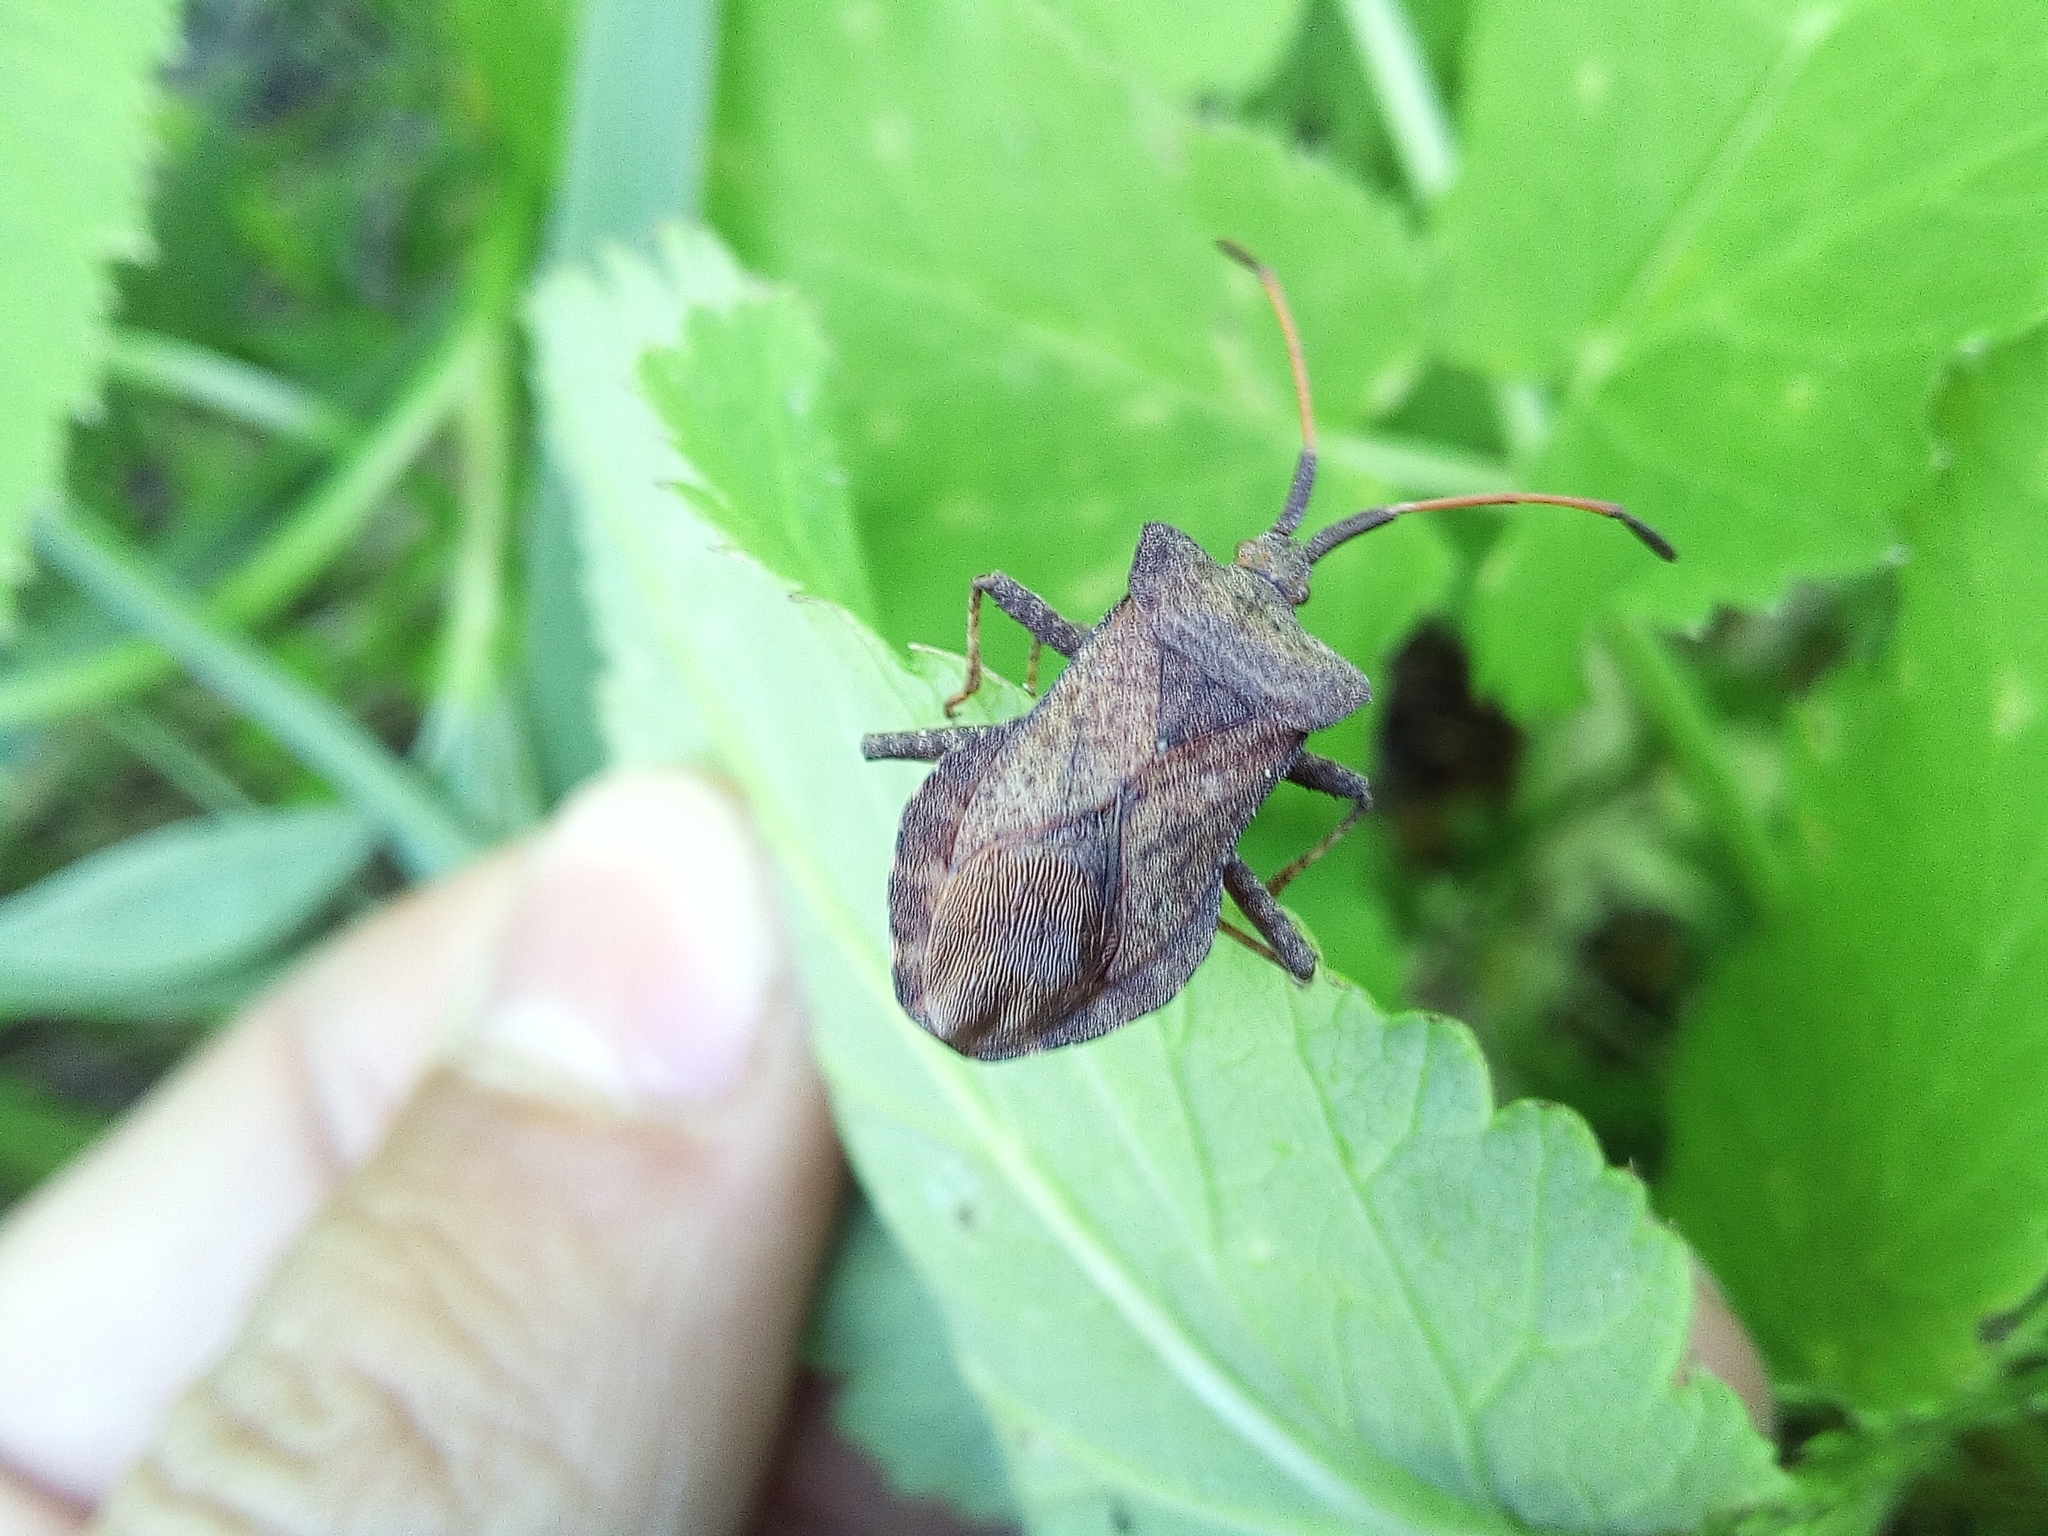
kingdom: Animalia
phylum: Arthropoda
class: Insecta
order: Hemiptera
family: Coreidae
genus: Coreus
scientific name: Coreus marginatus
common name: Dock bug
